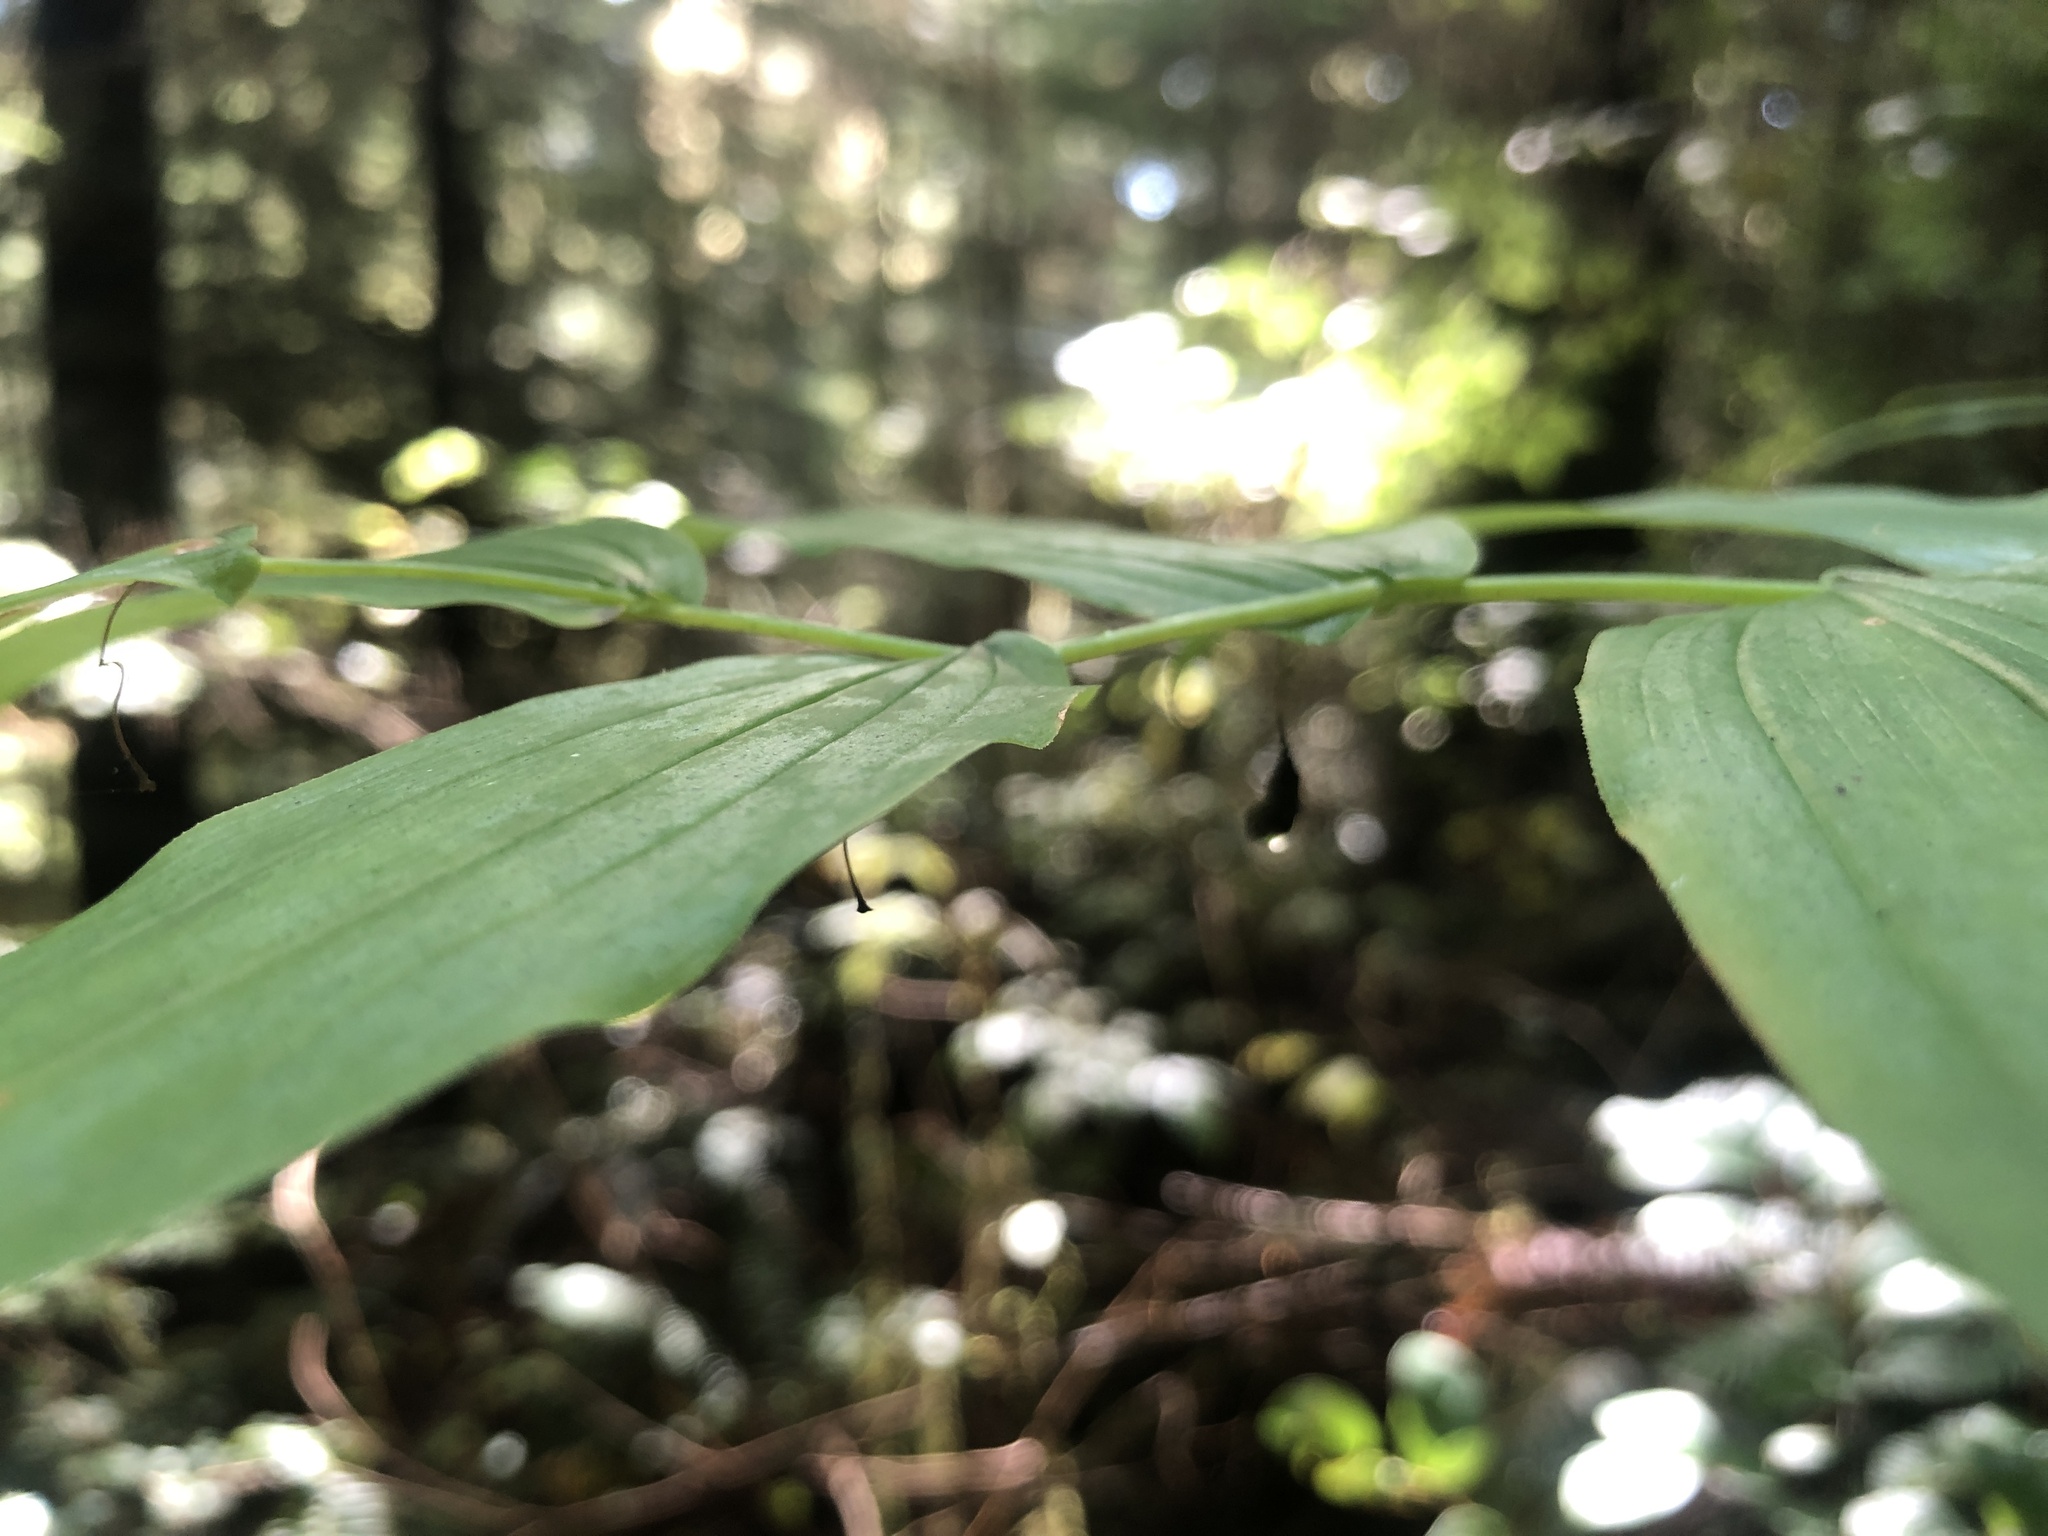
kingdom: Plantae
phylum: Tracheophyta
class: Liliopsida
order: Liliales
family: Liliaceae
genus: Streptopus
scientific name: Streptopus amplexifolius
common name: Clasp twisted stalk
